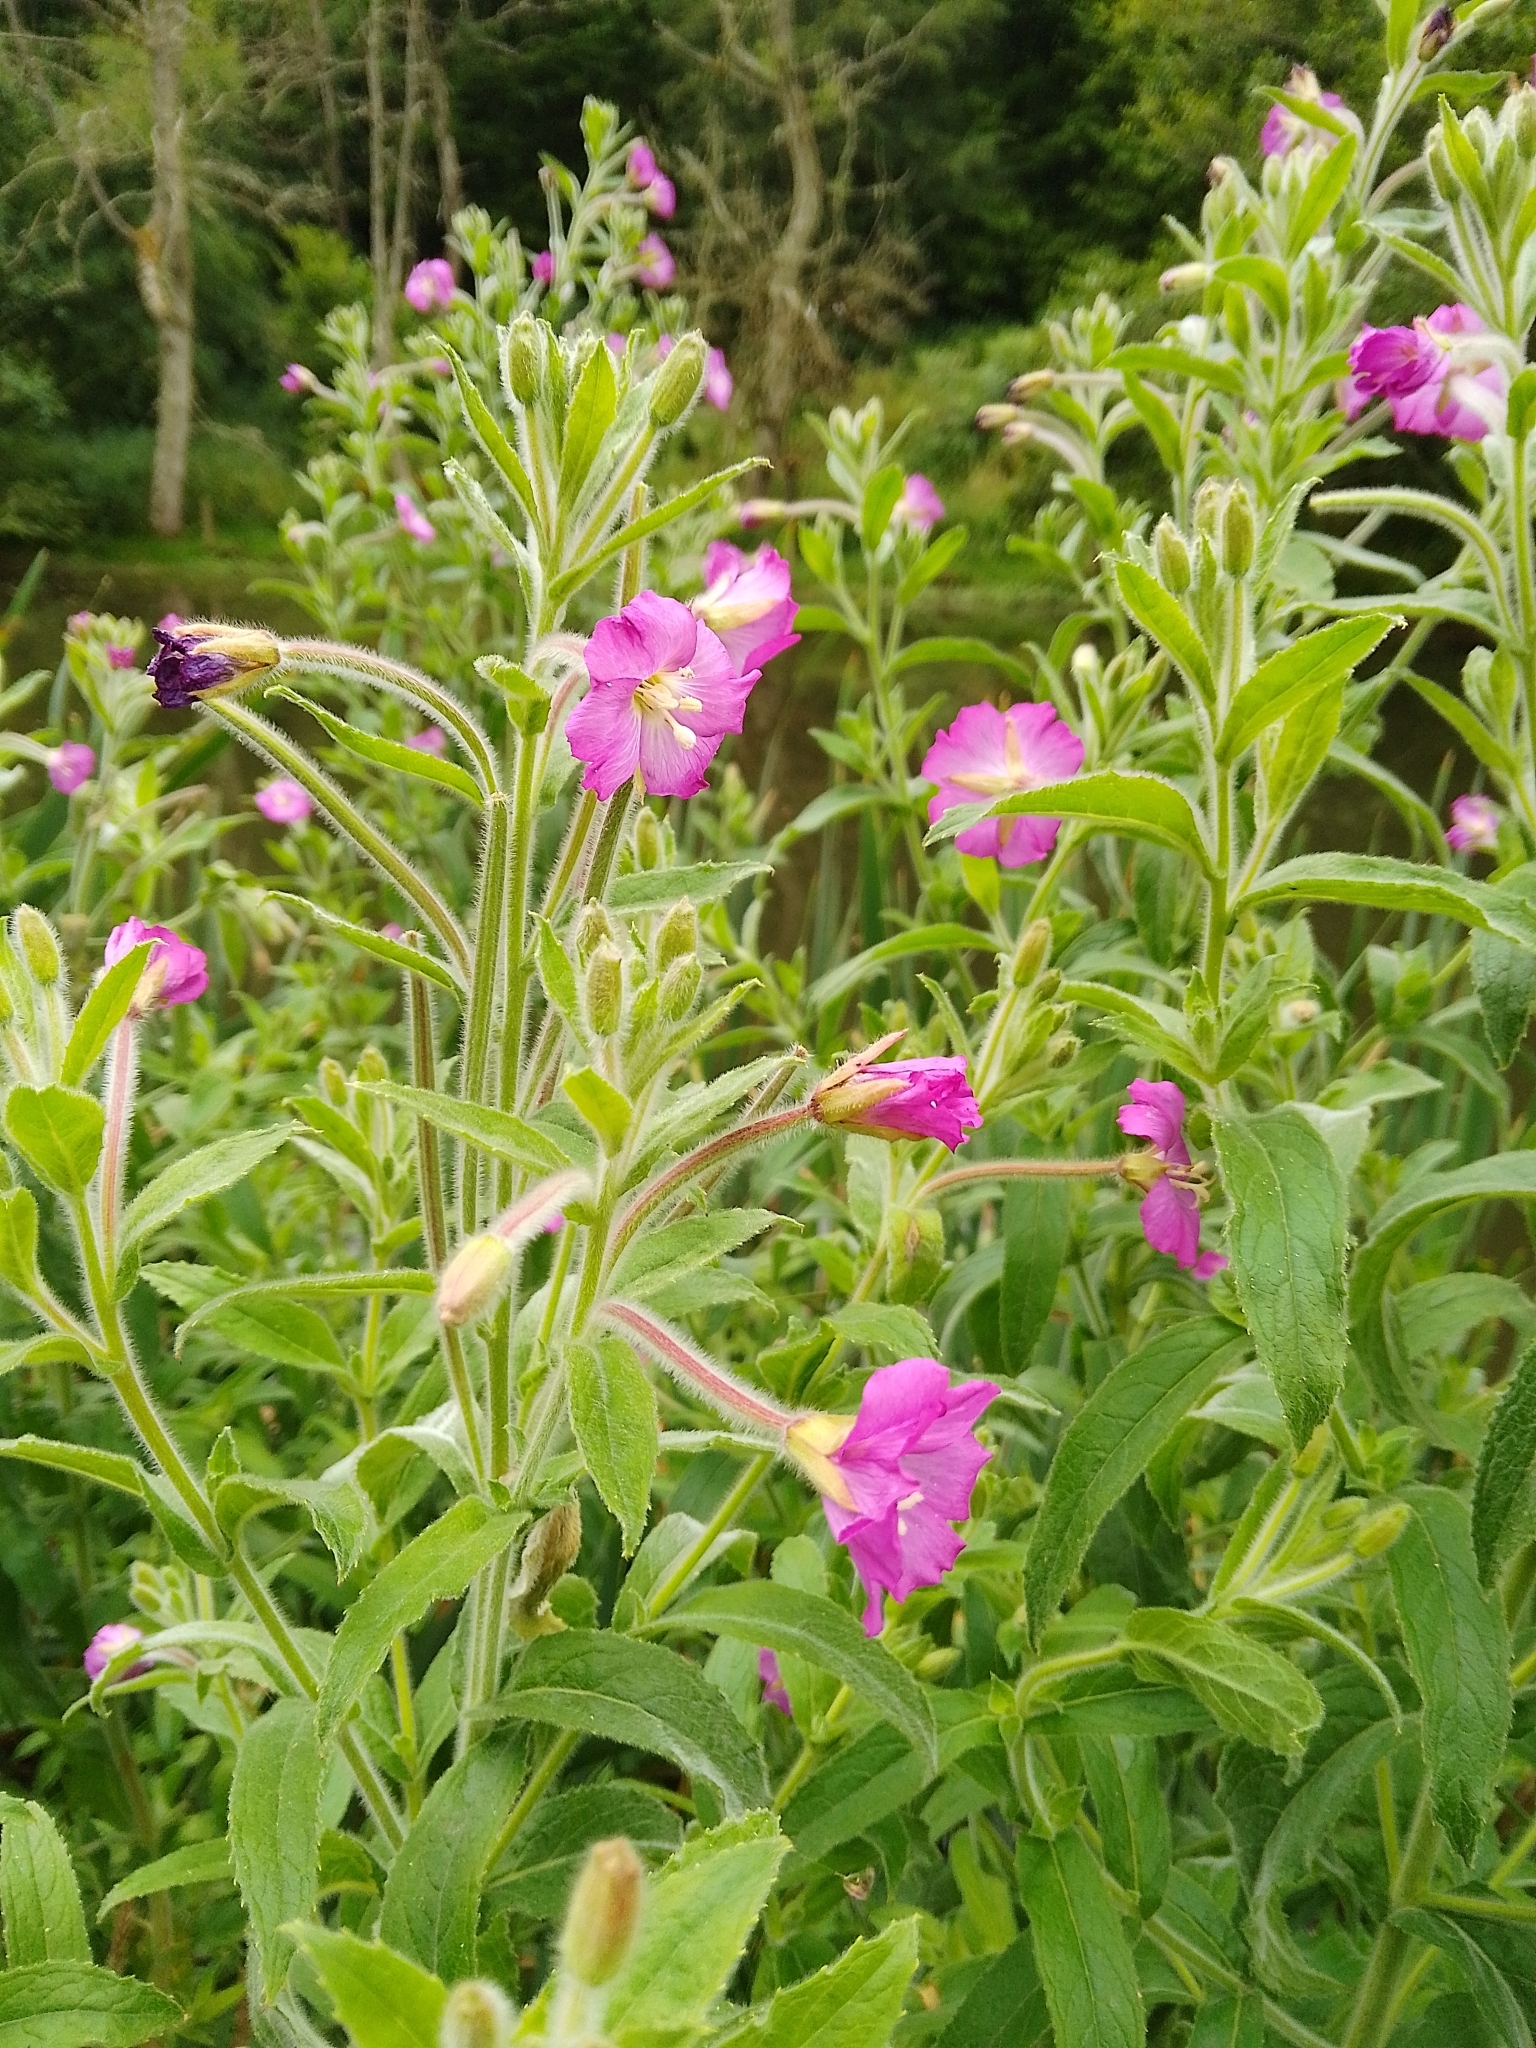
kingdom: Plantae
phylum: Tracheophyta
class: Magnoliopsida
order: Myrtales
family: Onagraceae
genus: Epilobium
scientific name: Epilobium hirsutum
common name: Great willowherb
